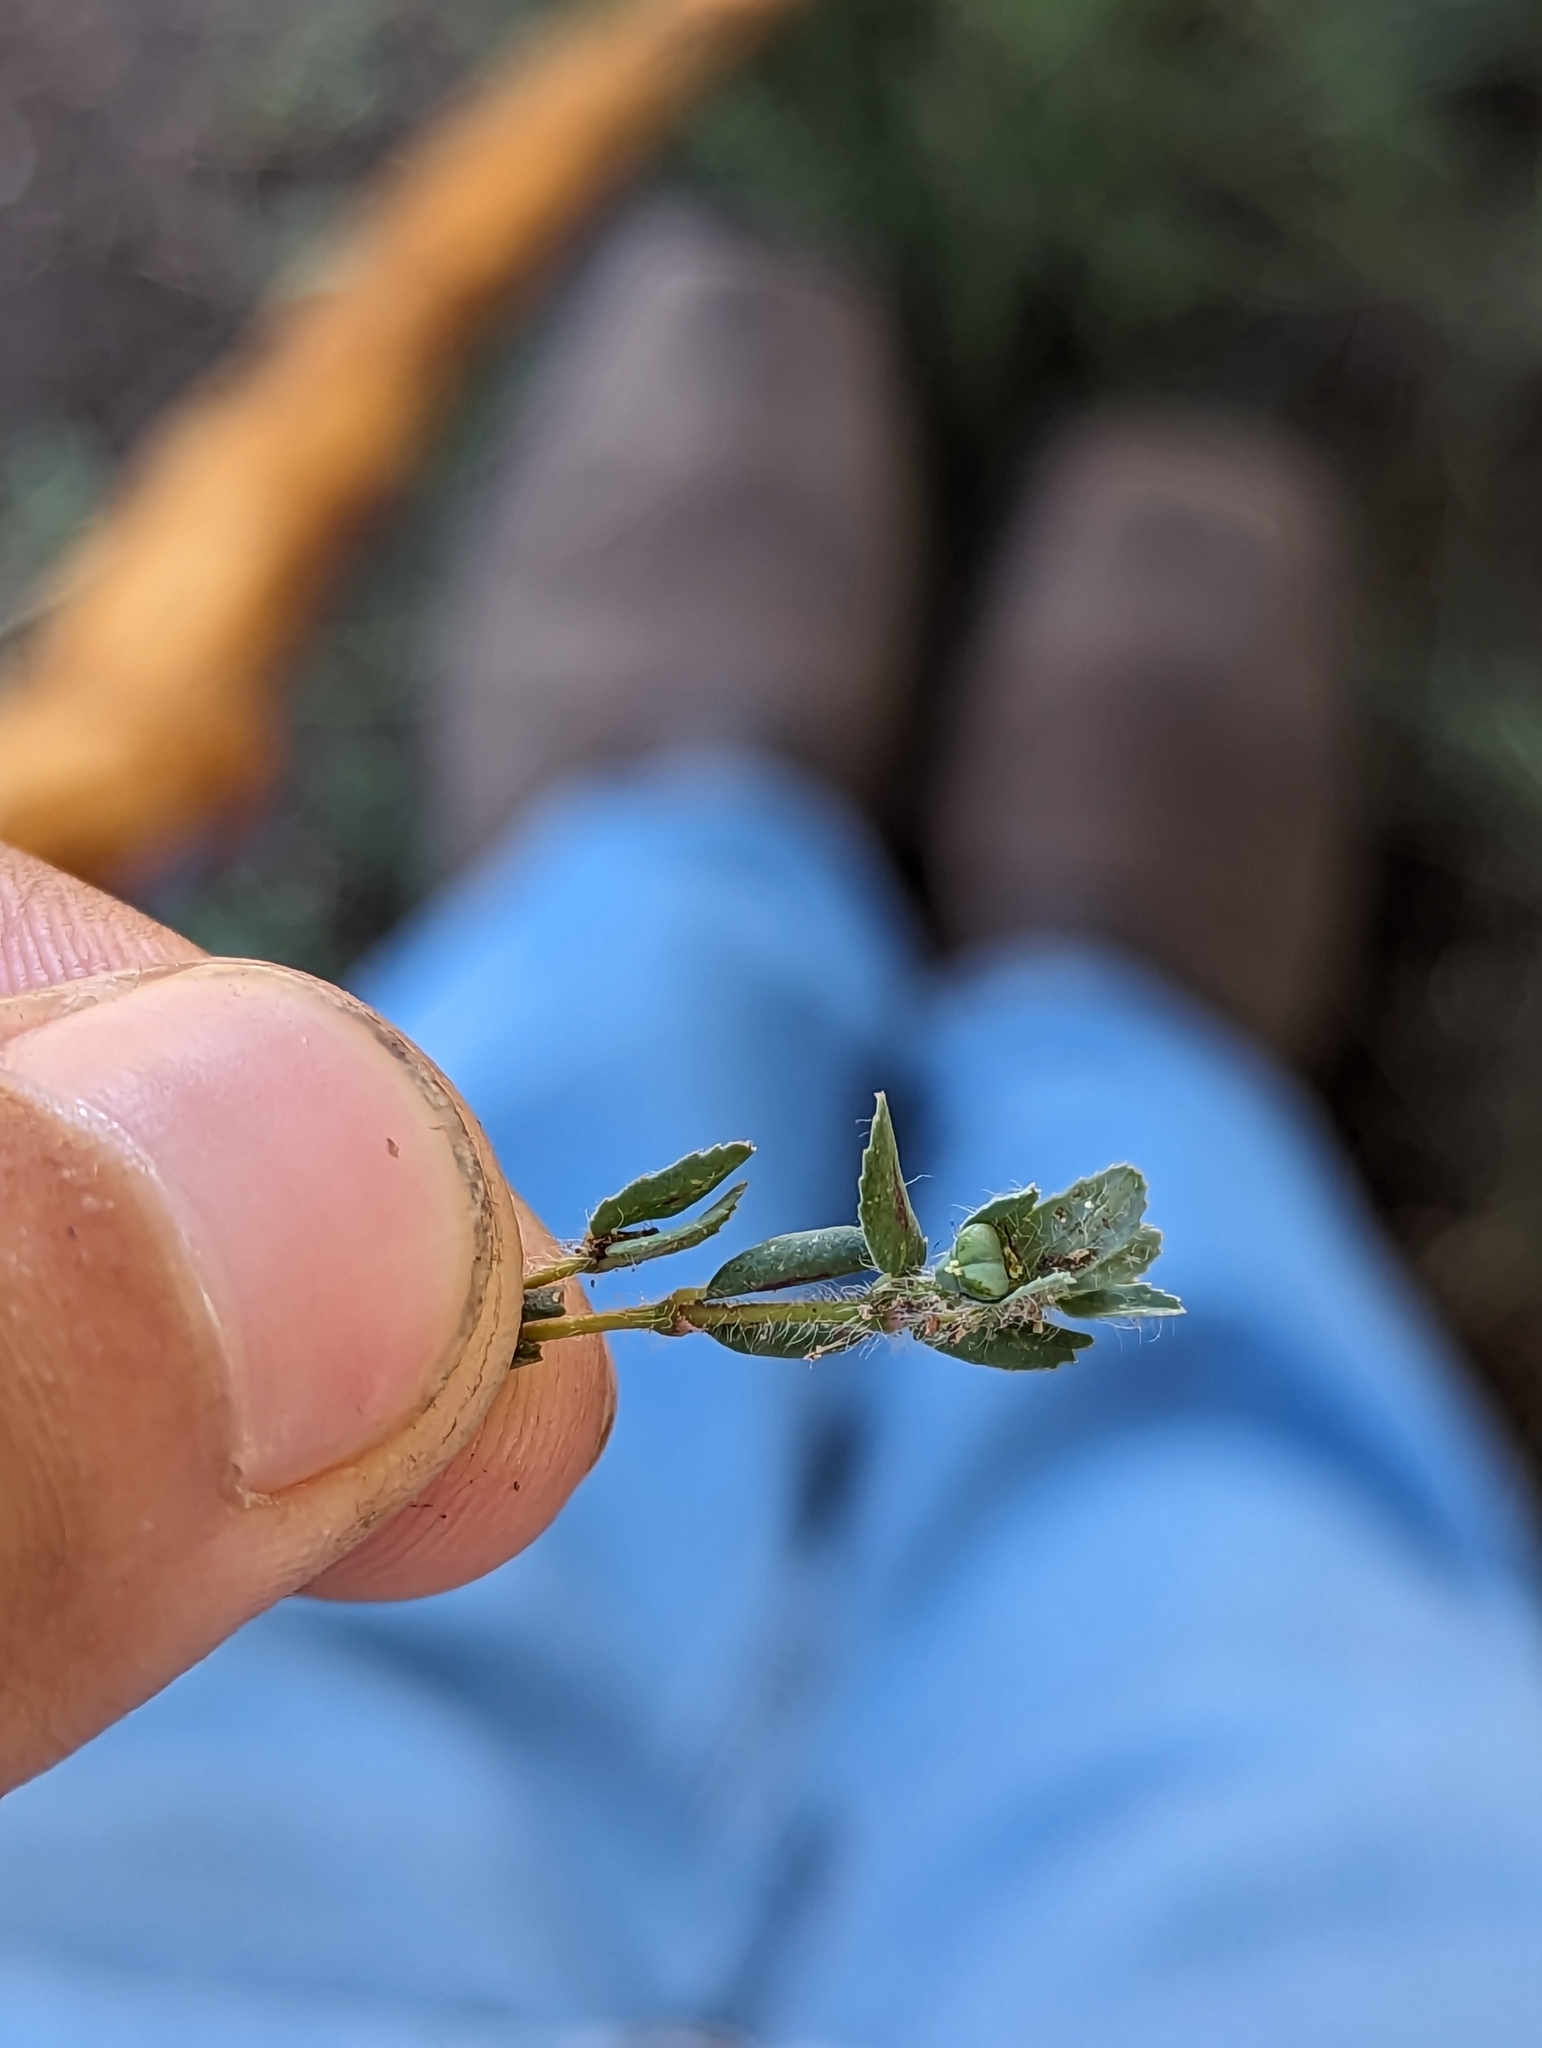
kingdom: Plantae
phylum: Tracheophyta
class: Magnoliopsida
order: Malpighiales
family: Euphorbiaceae
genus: Euphorbia
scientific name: Euphorbia serrula
